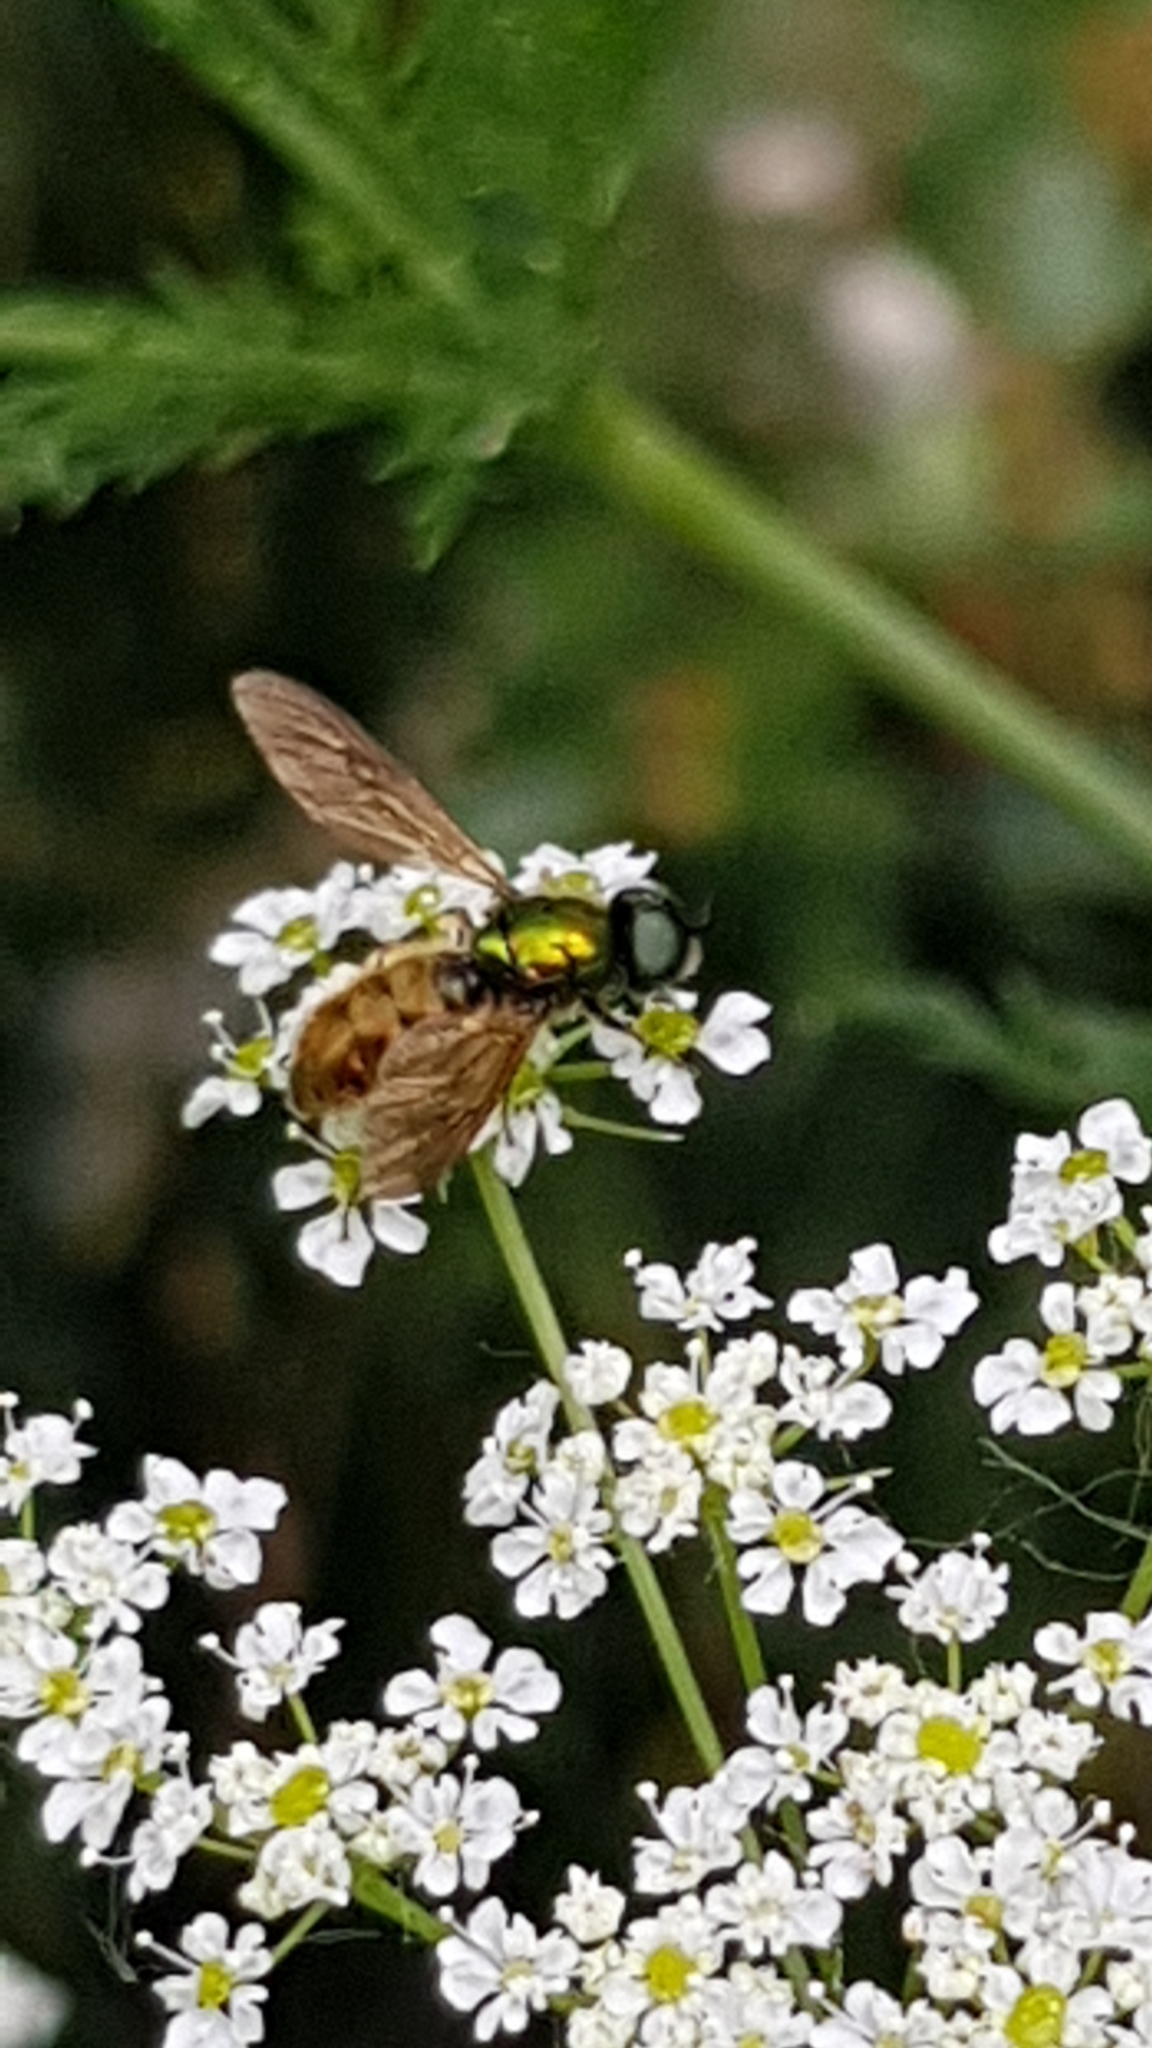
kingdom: Animalia
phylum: Arthropoda
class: Insecta
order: Diptera
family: Stratiomyidae
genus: Chloromyia
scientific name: Chloromyia formosa
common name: Soldier fly
